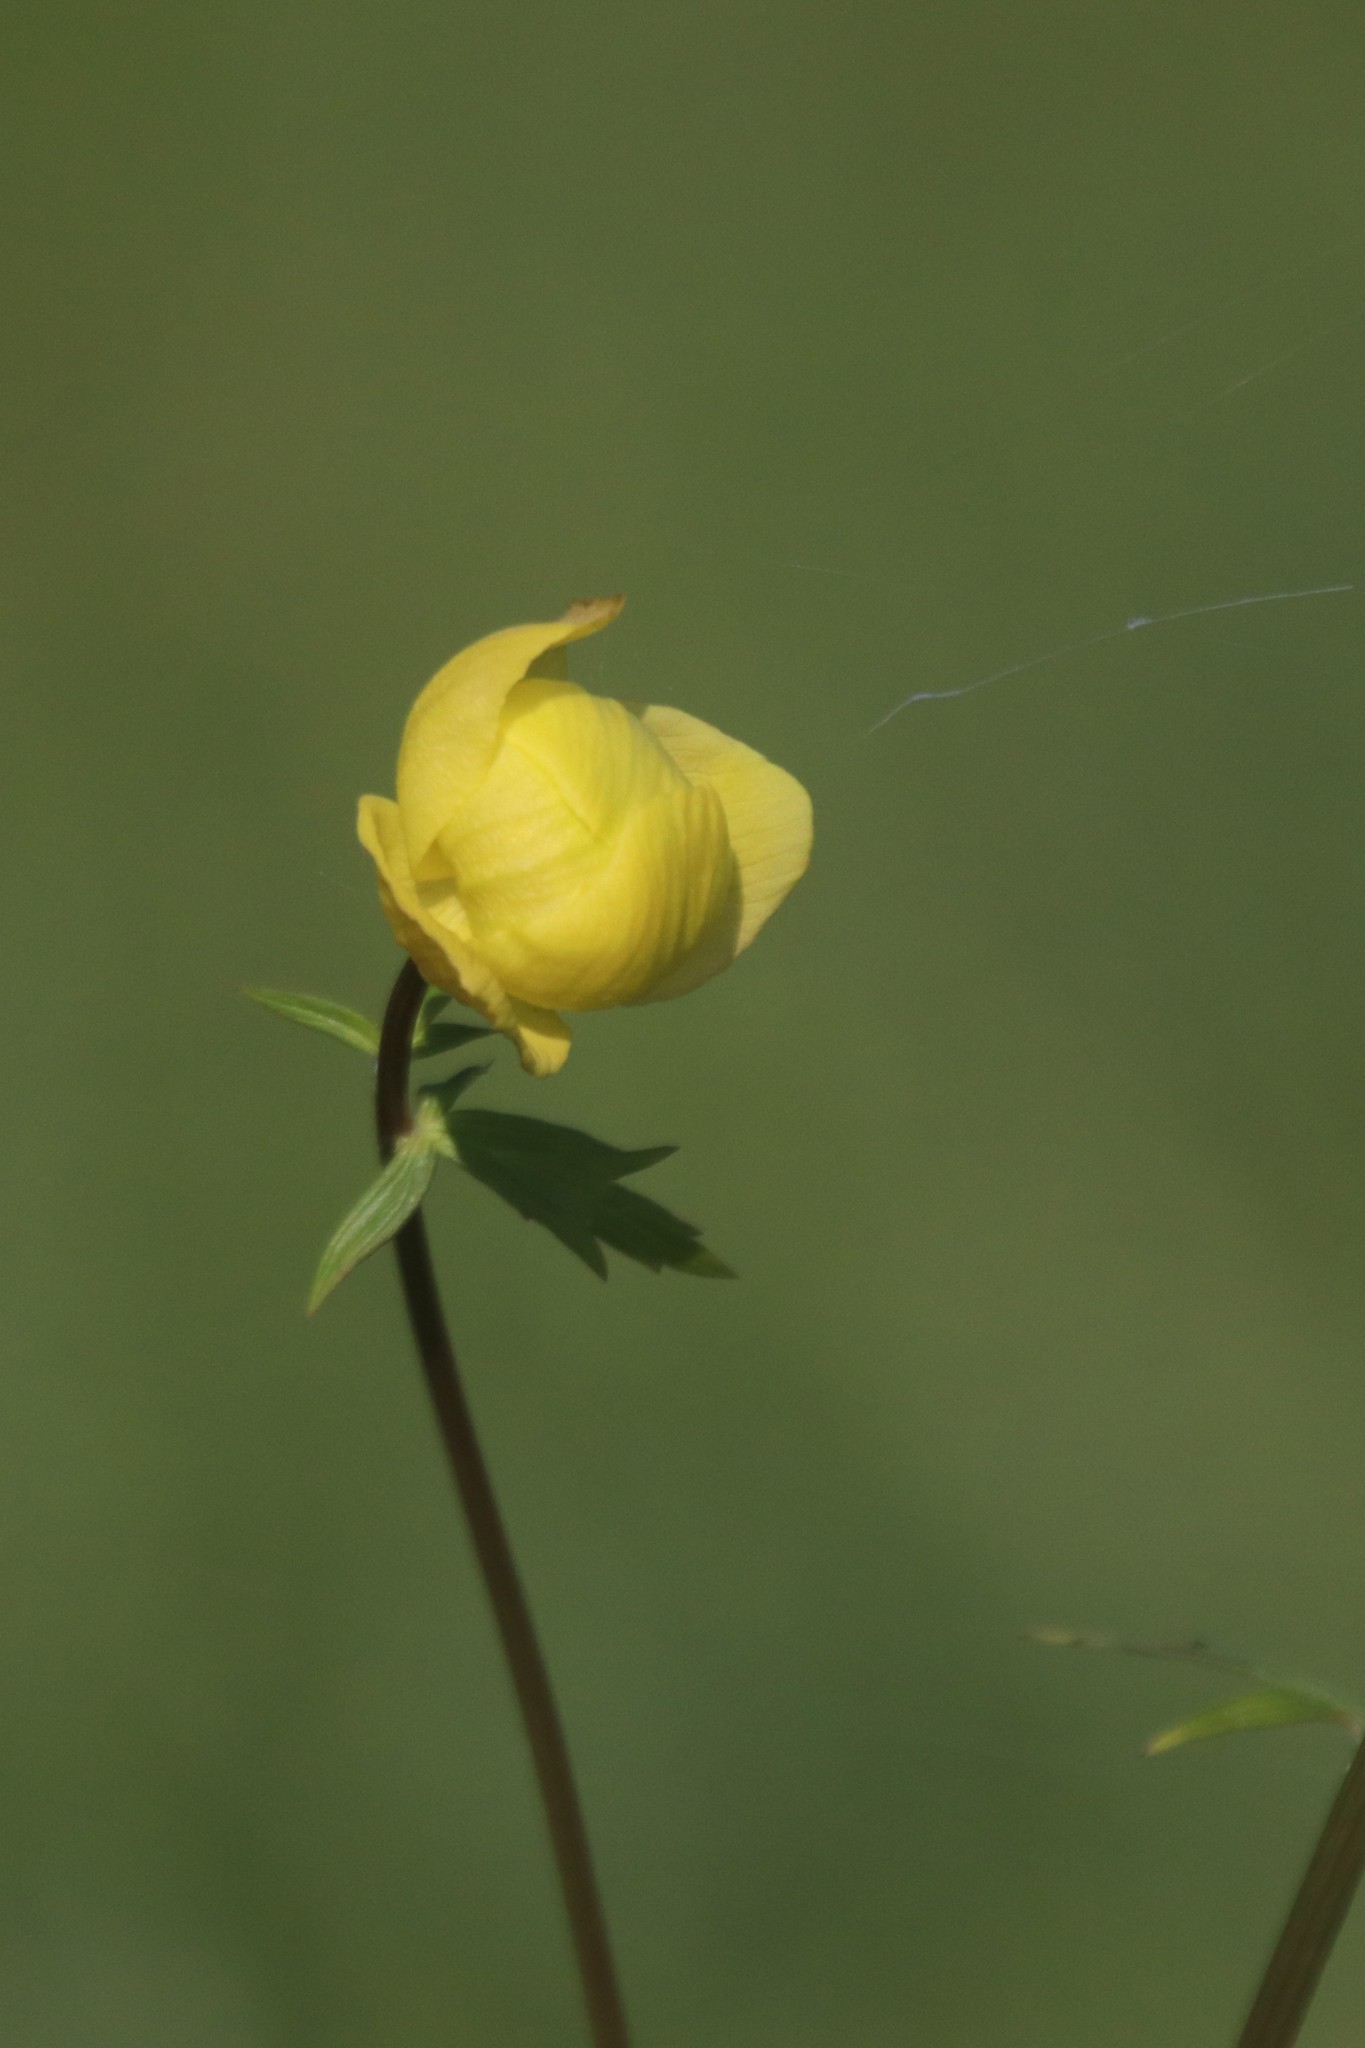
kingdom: Plantae
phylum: Tracheophyta
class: Magnoliopsida
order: Ranunculales
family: Ranunculaceae
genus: Trollius
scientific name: Trollius europaeus
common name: European globeflower
